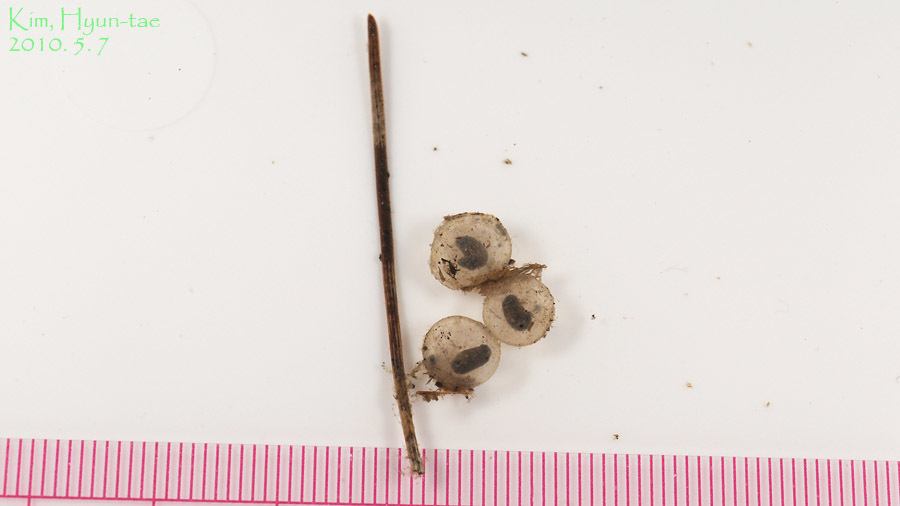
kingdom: Animalia
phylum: Chordata
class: Amphibia
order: Anura
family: Bombinatoridae
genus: Bombina
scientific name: Bombina orientalis
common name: Oriental firebelly toad
